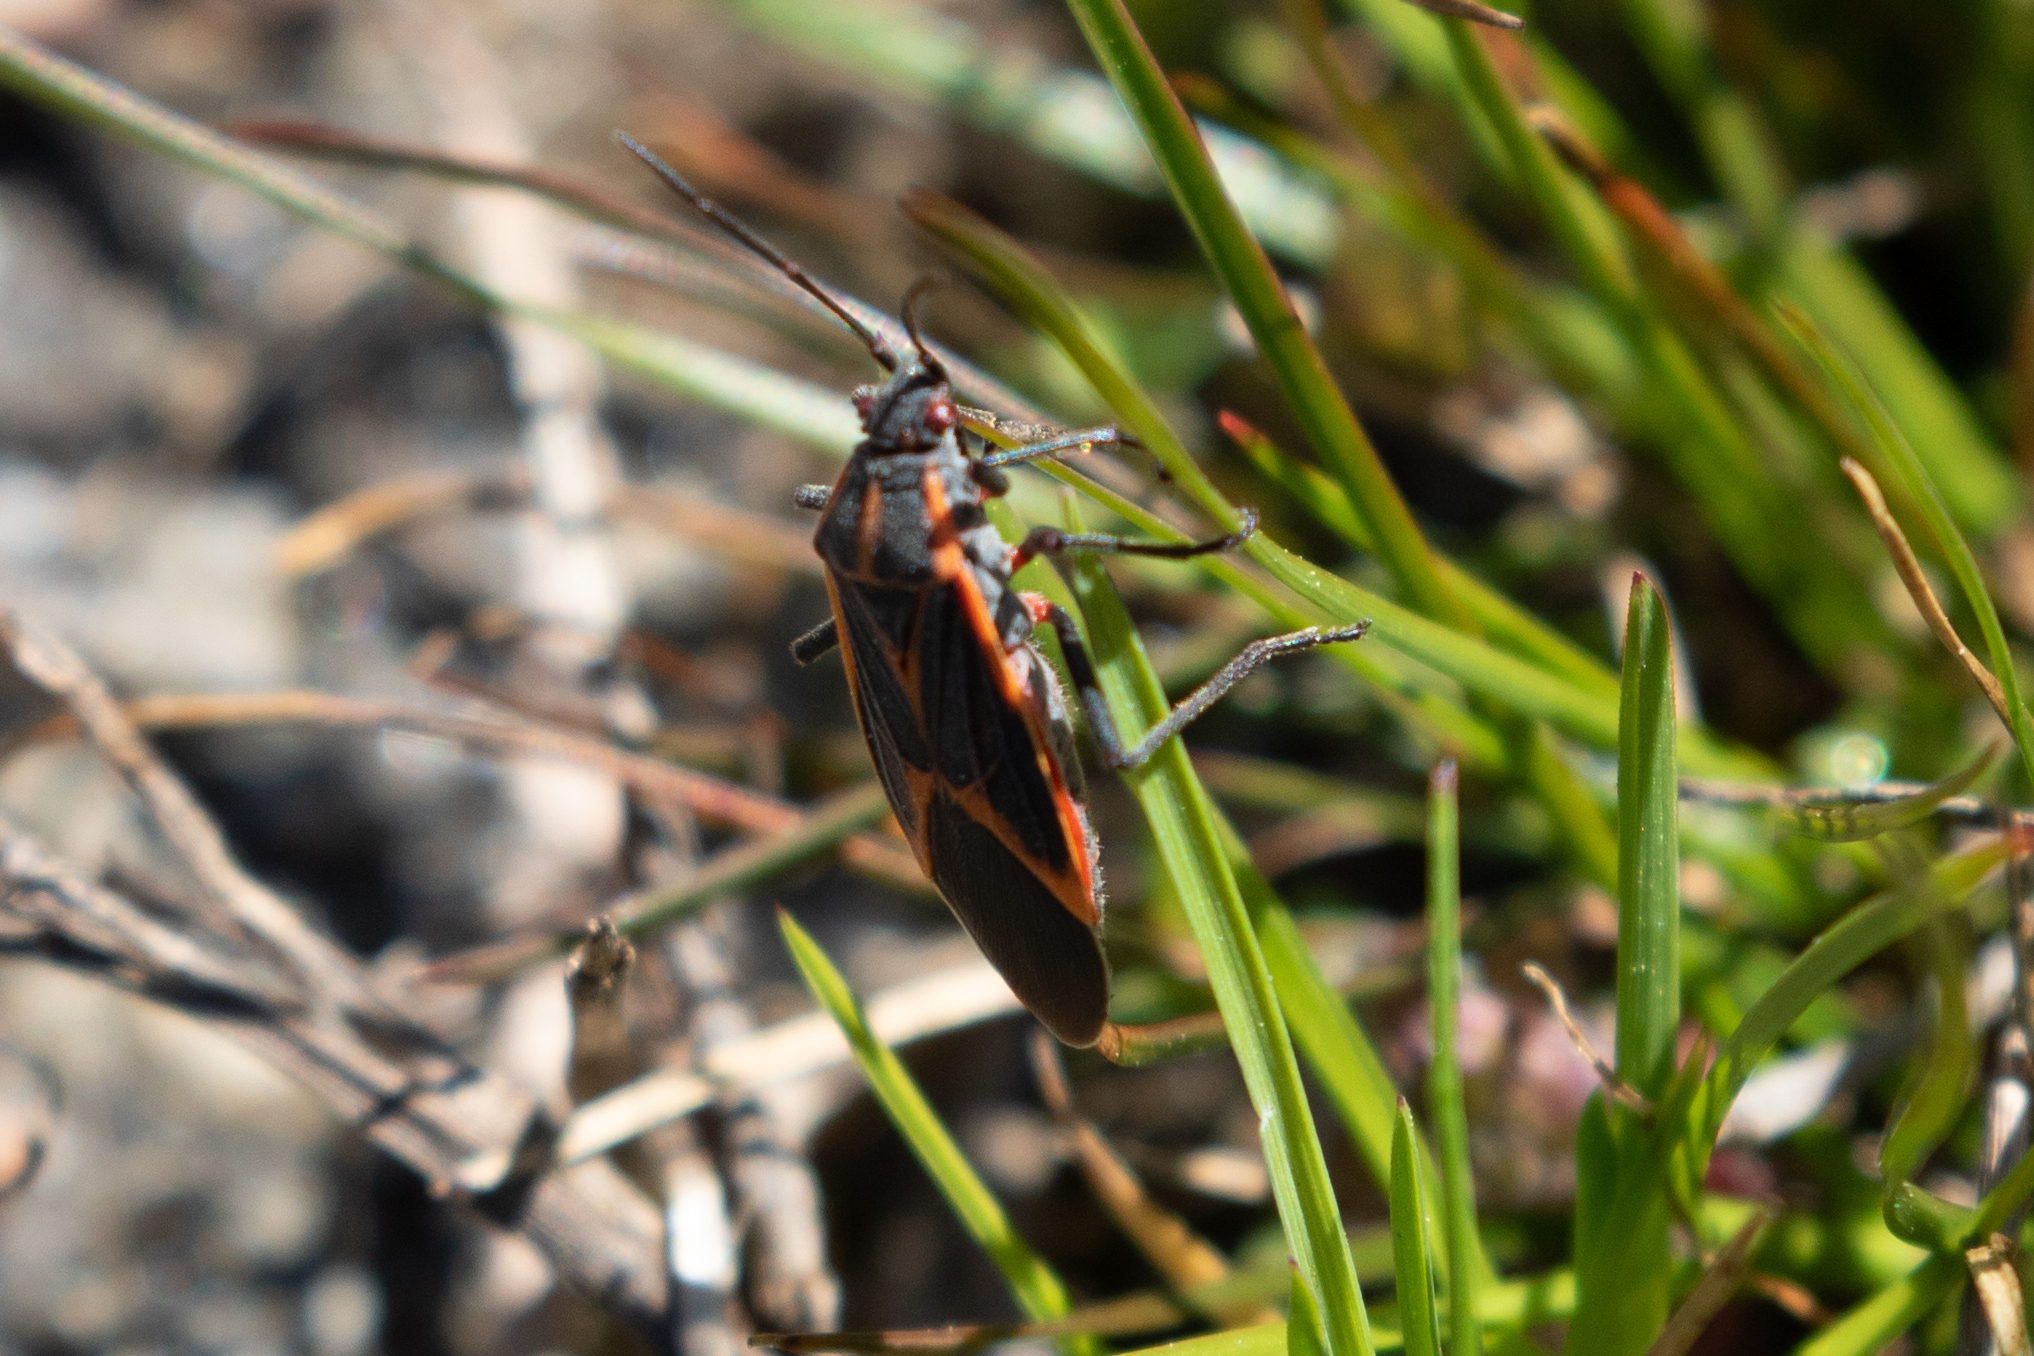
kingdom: Animalia
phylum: Arthropoda
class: Insecta
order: Hemiptera
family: Rhopalidae
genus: Boisea
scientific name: Boisea trivittata
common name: Boxelder bug
